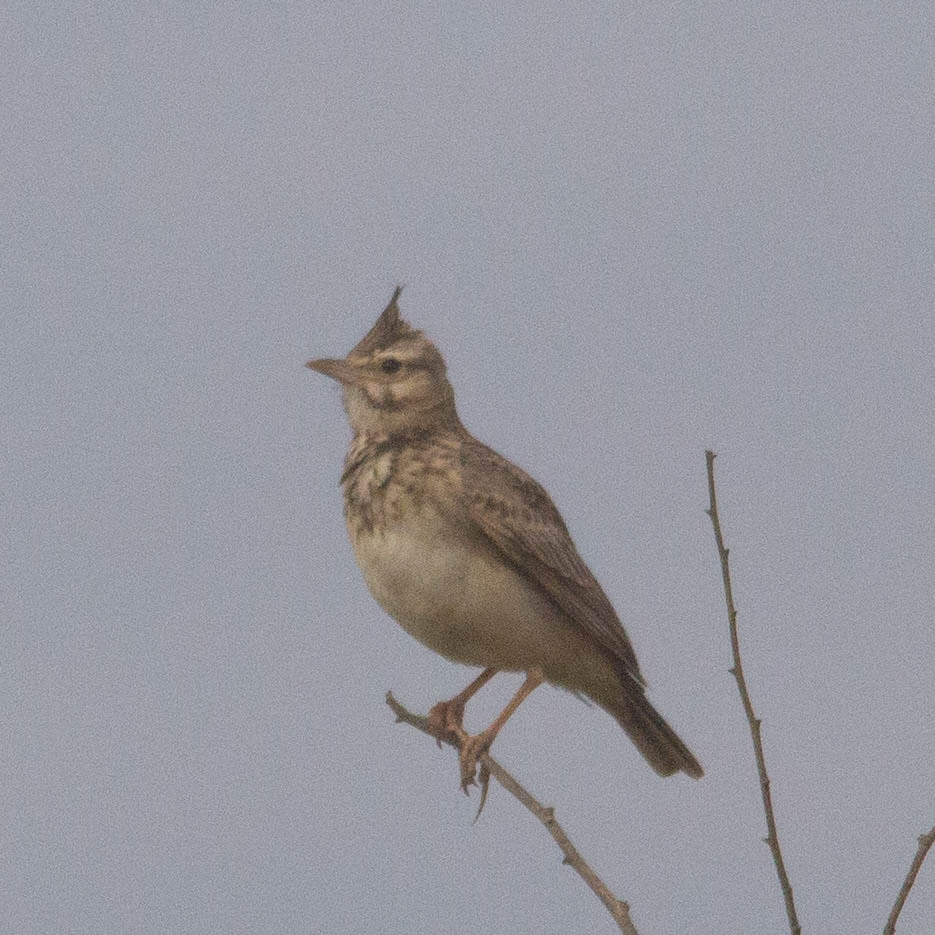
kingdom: Animalia
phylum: Chordata
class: Aves
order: Passeriformes
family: Alaudidae
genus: Galerida
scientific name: Galerida cristata
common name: Crested lark
